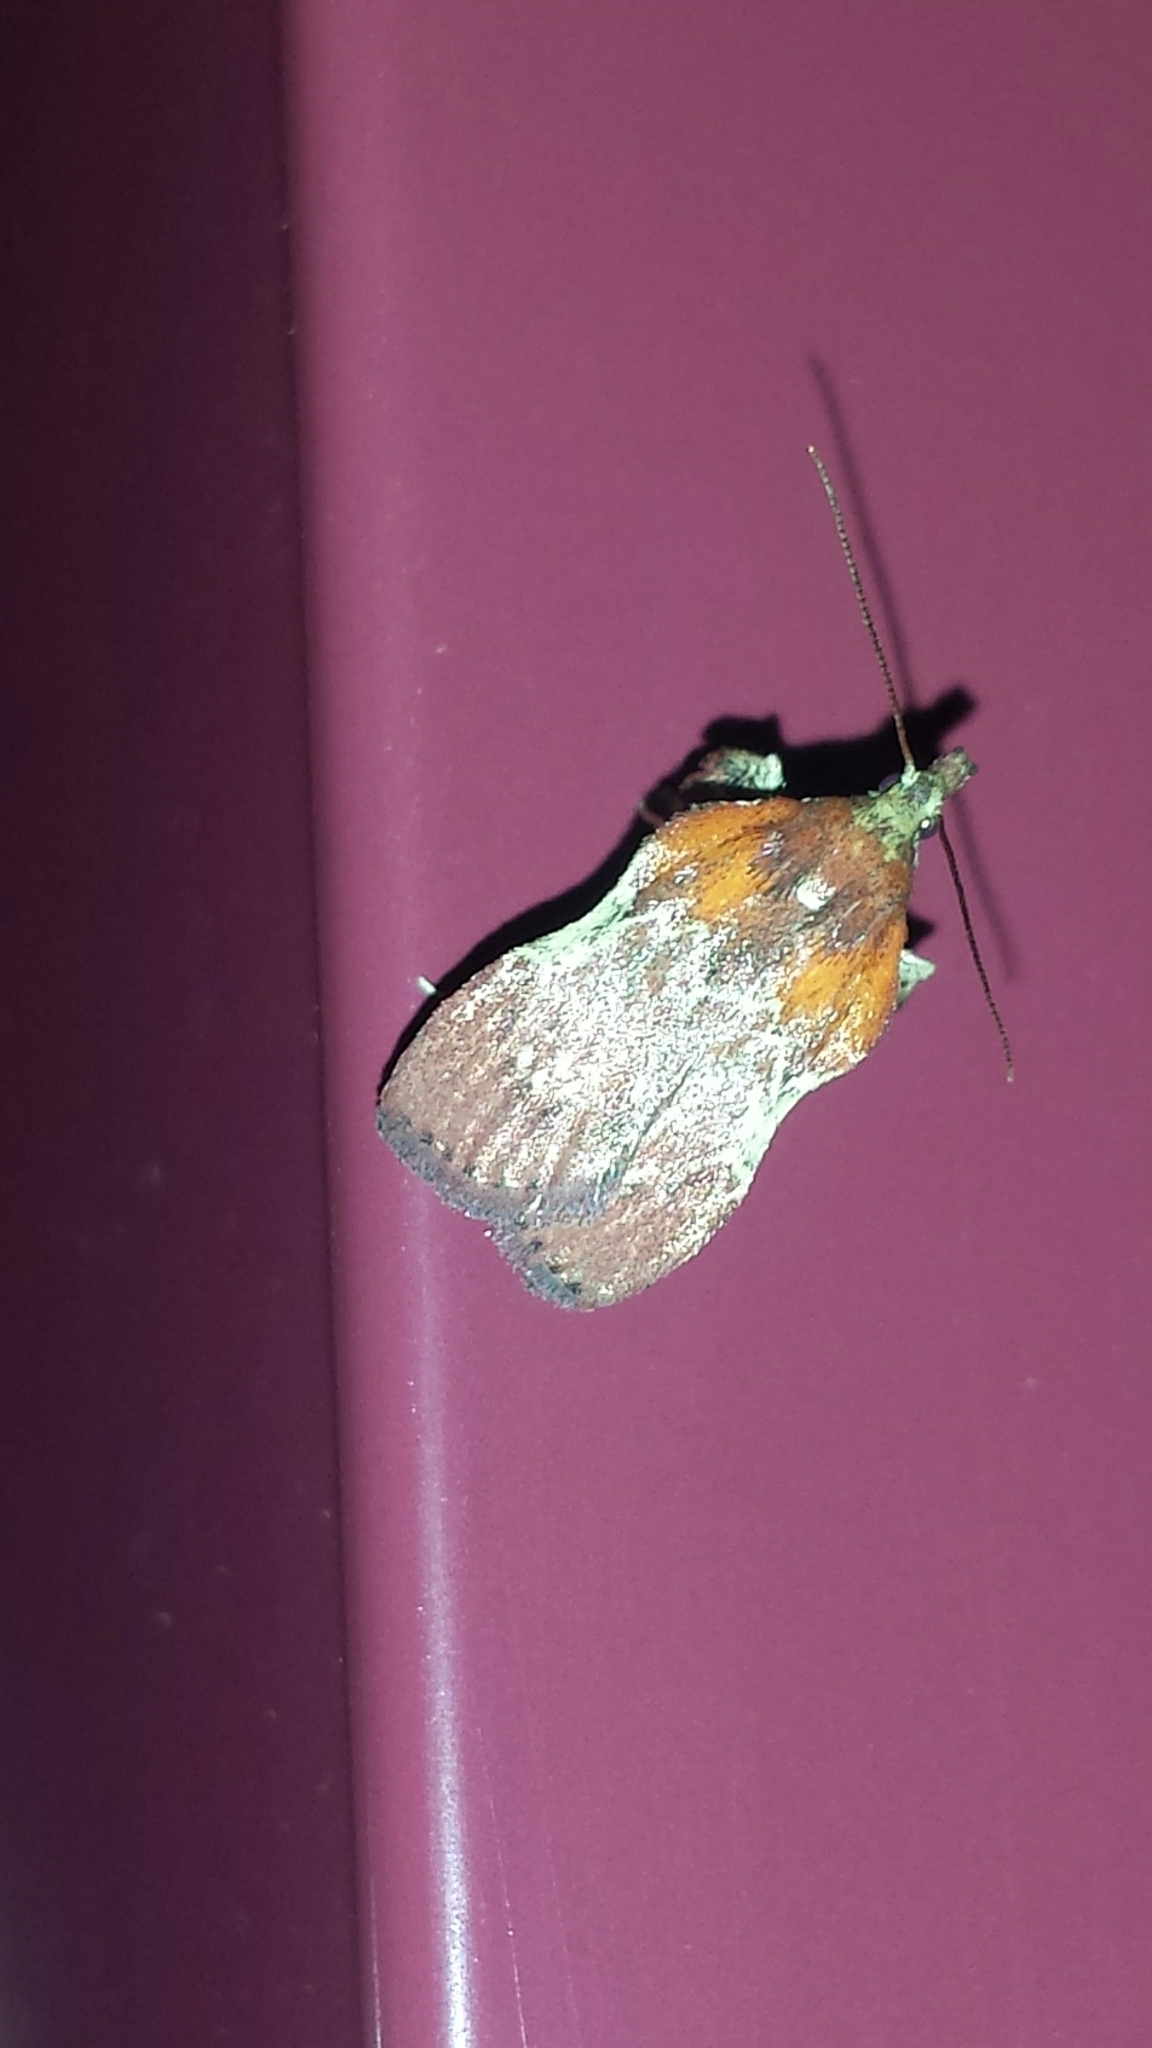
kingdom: Animalia
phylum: Arthropoda
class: Insecta
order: Lepidoptera
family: Pyralidae
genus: Galasa
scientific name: Galasa nigrinodis
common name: Boxwood leaftier moth
